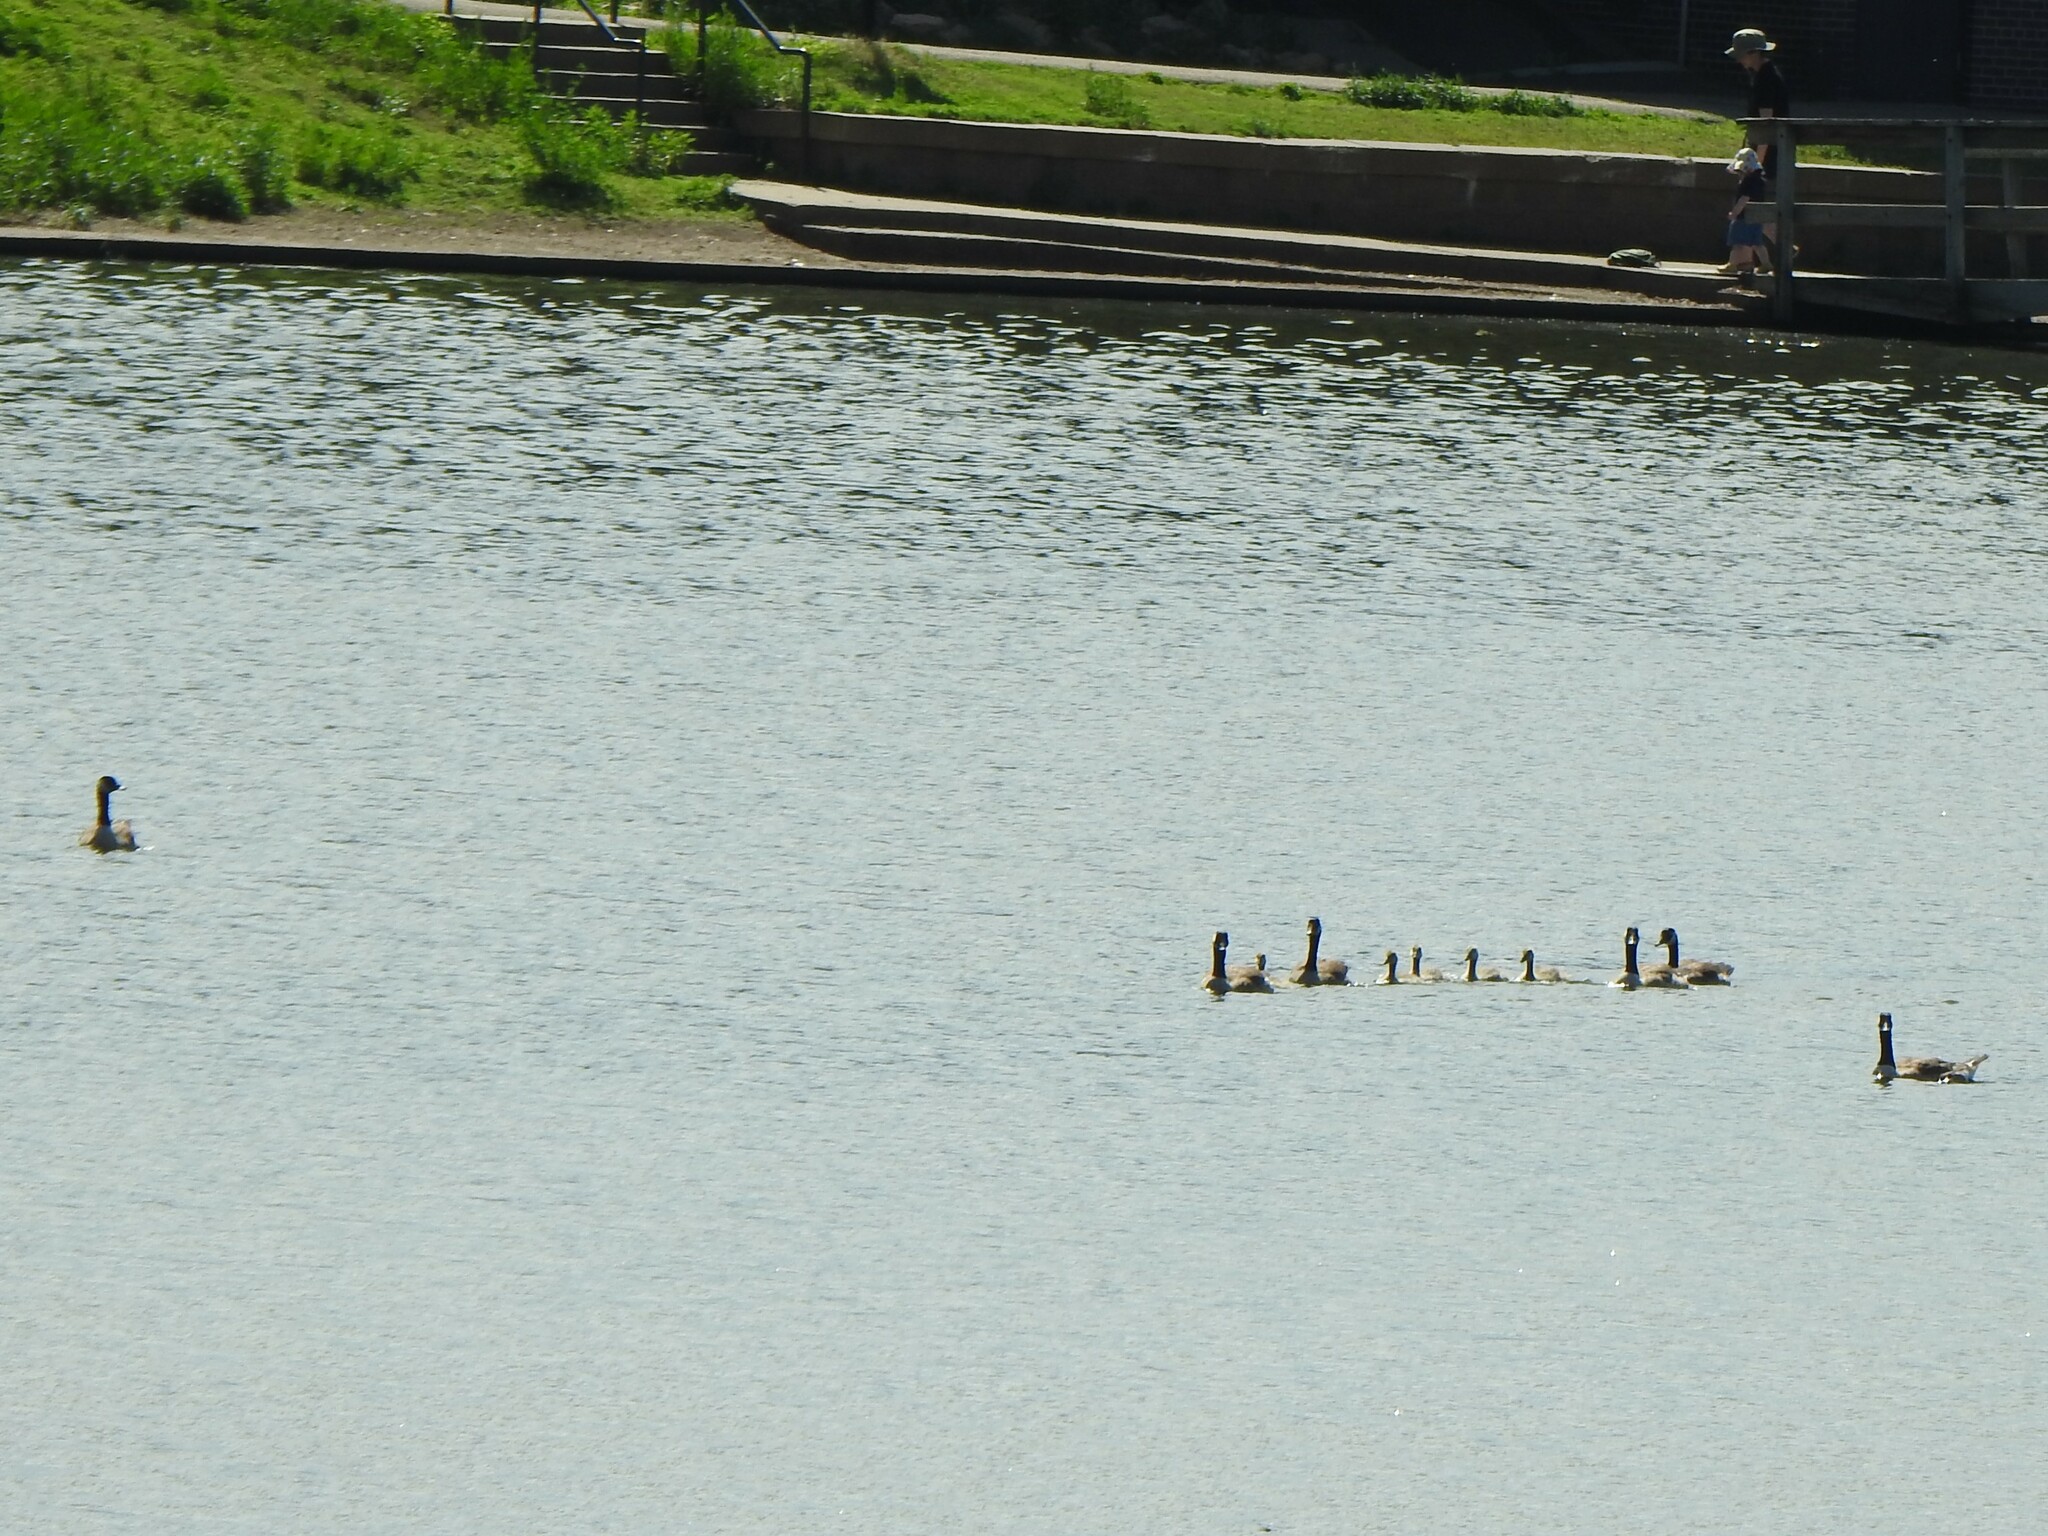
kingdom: Animalia
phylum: Chordata
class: Aves
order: Anseriformes
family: Anatidae
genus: Branta
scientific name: Branta canadensis
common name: Canada goose
